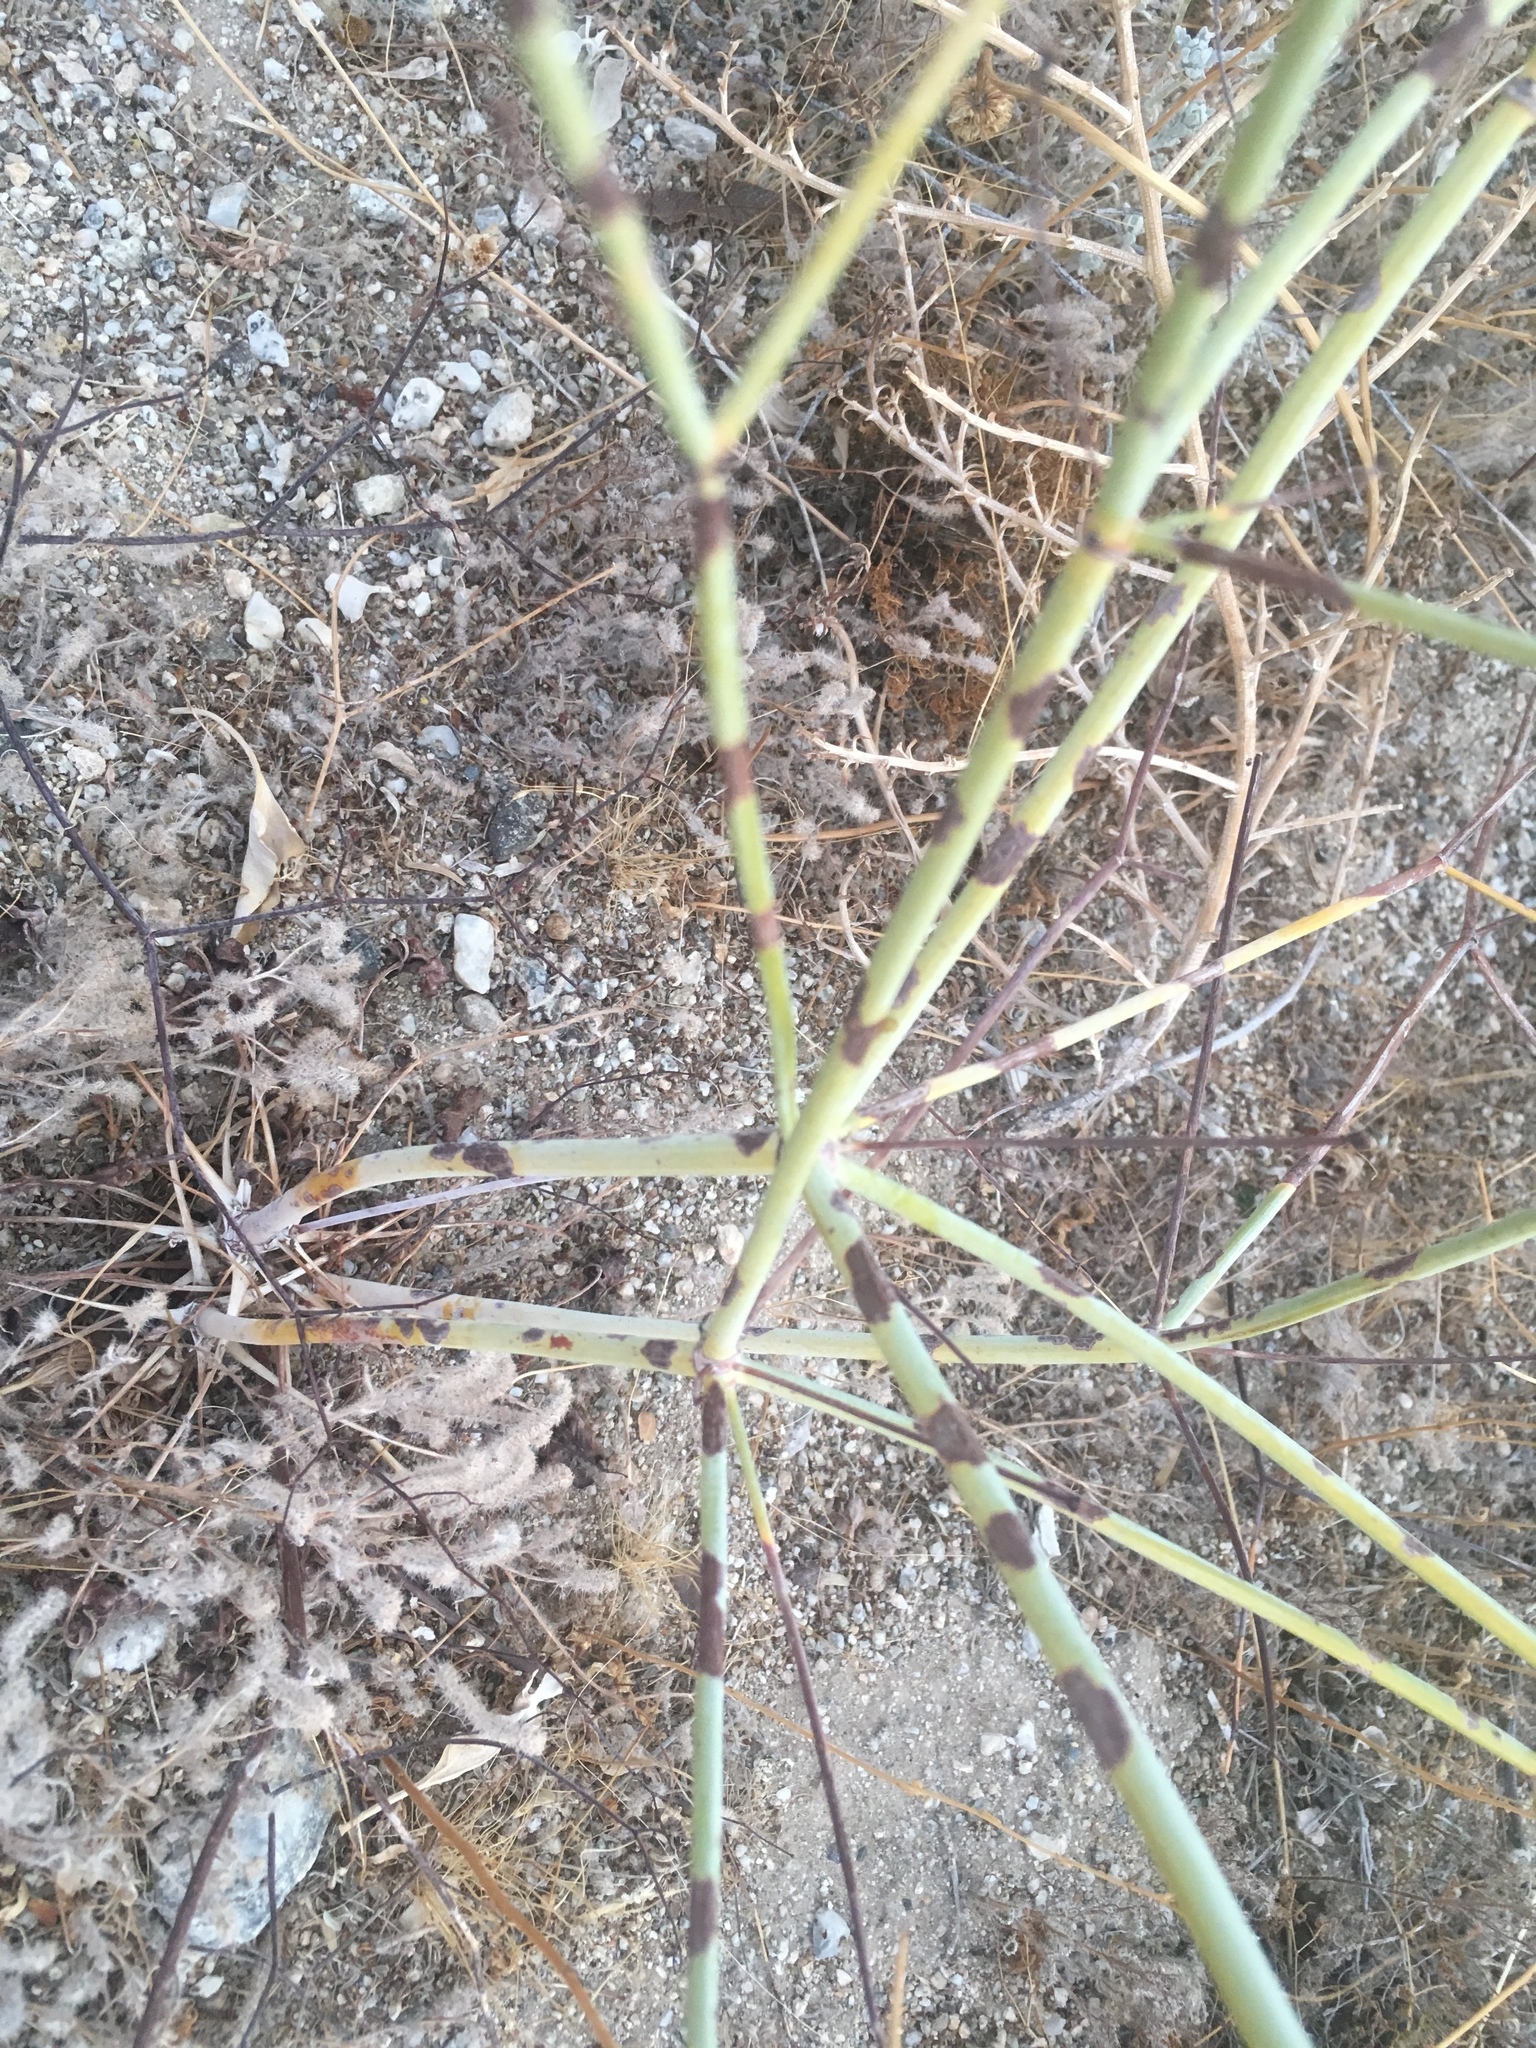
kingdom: Plantae
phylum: Tracheophyta
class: Magnoliopsida
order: Caryophyllales
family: Polygonaceae
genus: Eriogonum
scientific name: Eriogonum inflatum
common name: Desert trumpet
